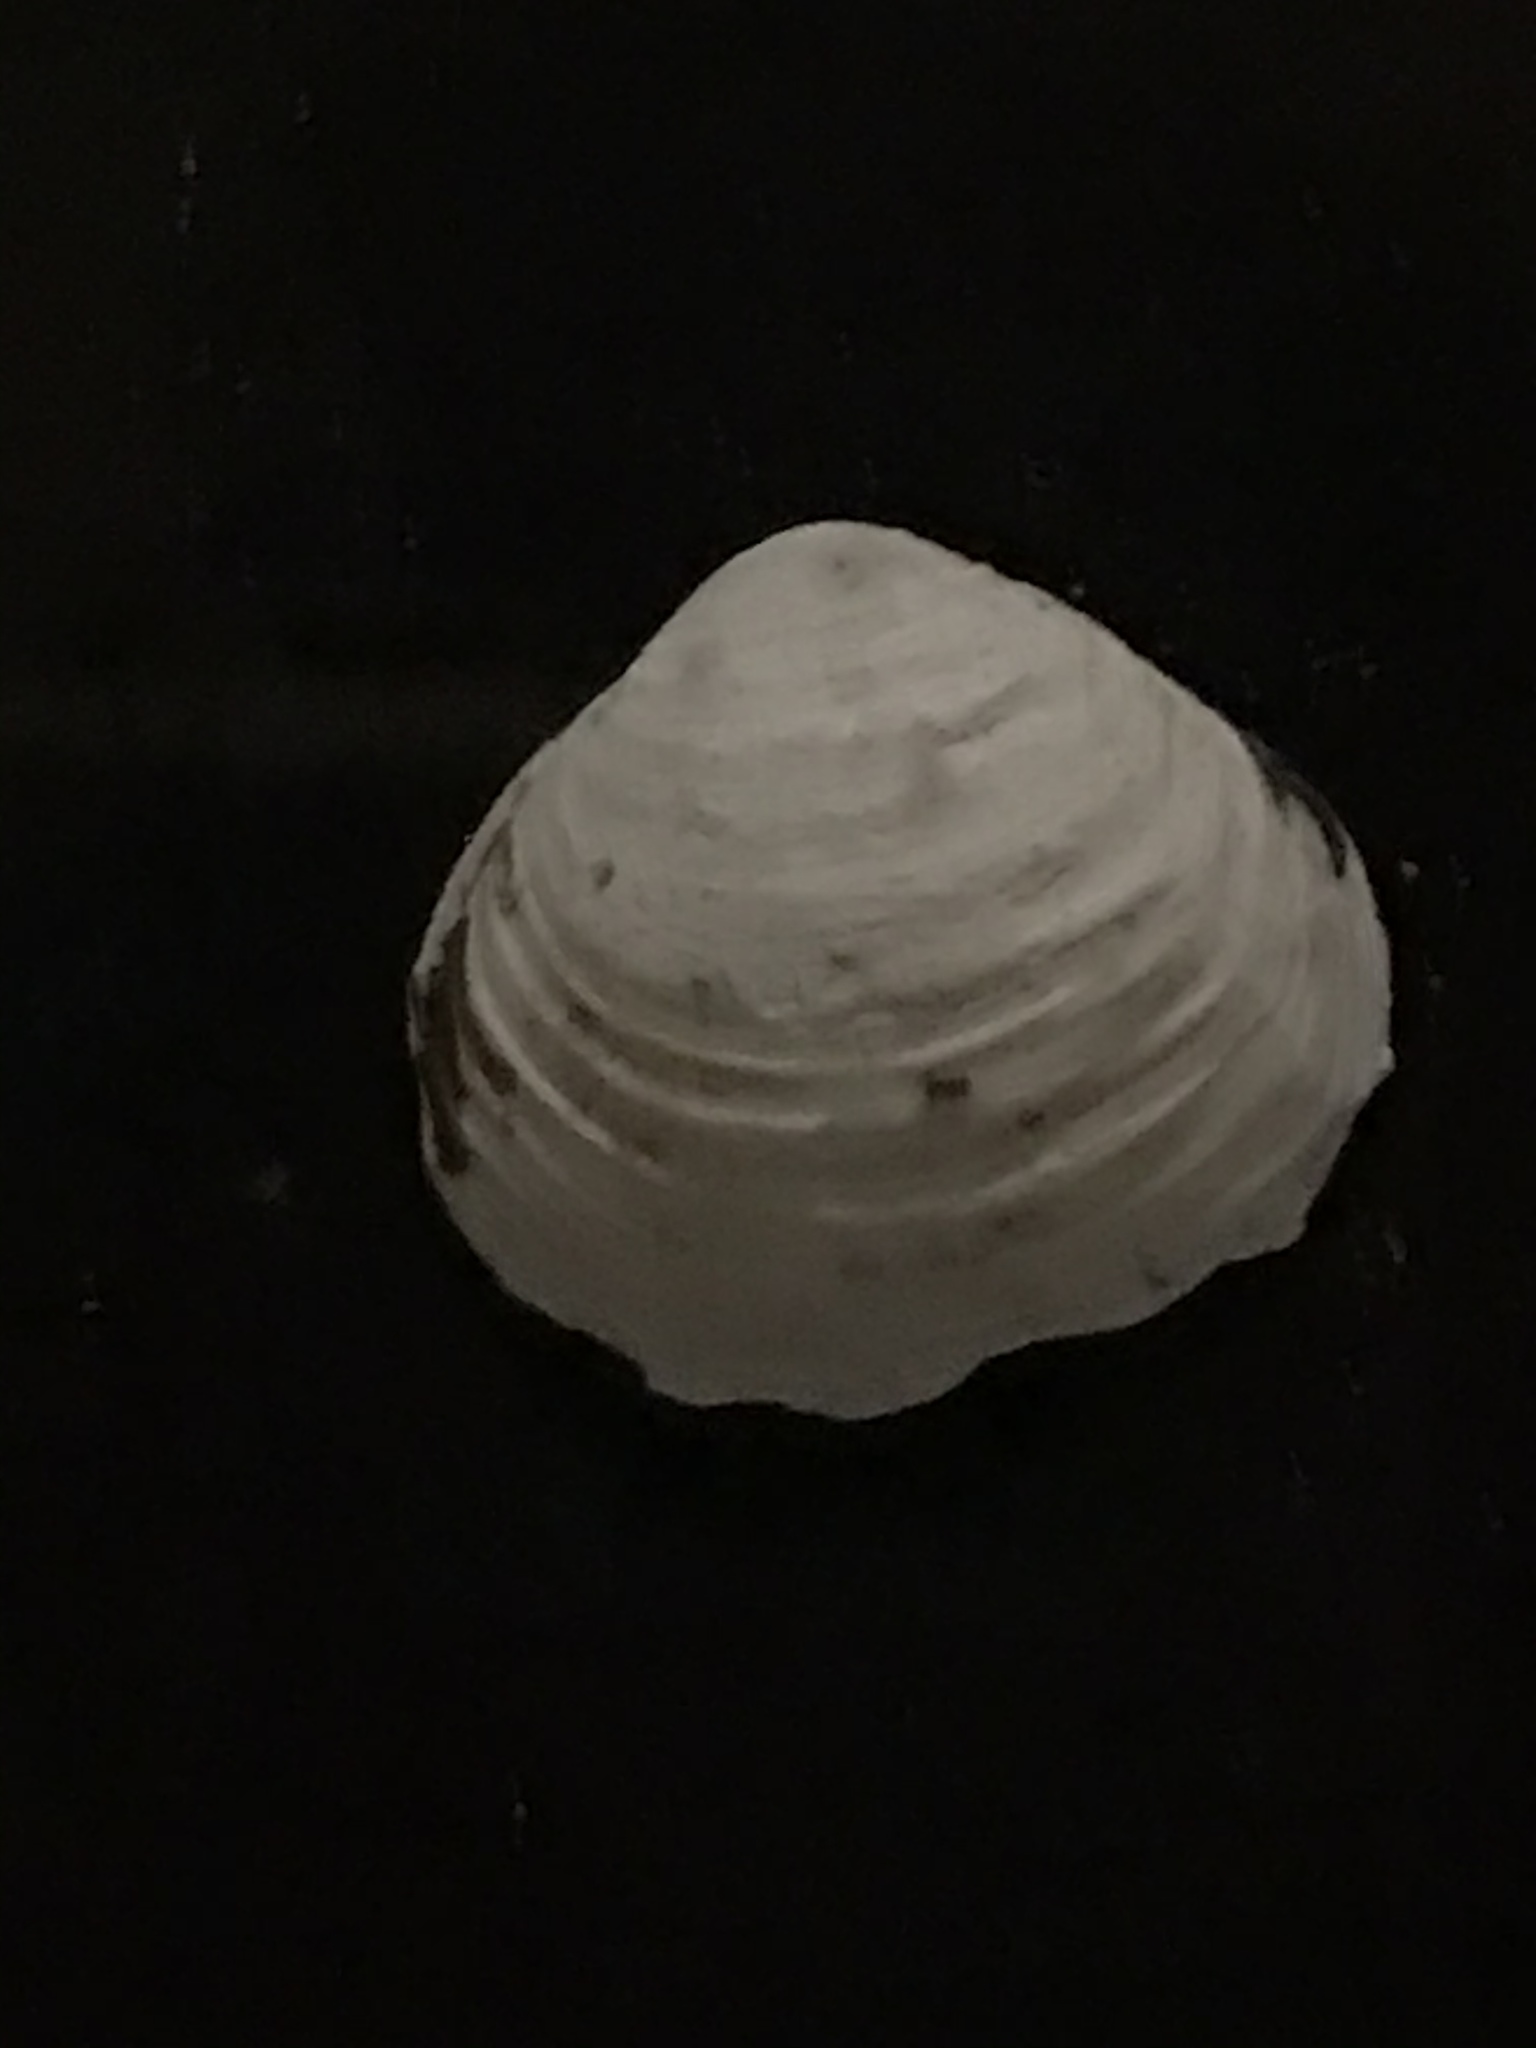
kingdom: Animalia
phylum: Mollusca
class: Bivalvia
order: Venerida
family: Cyrenidae
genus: Corbicula
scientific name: Corbicula fluminea
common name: Asian clam
